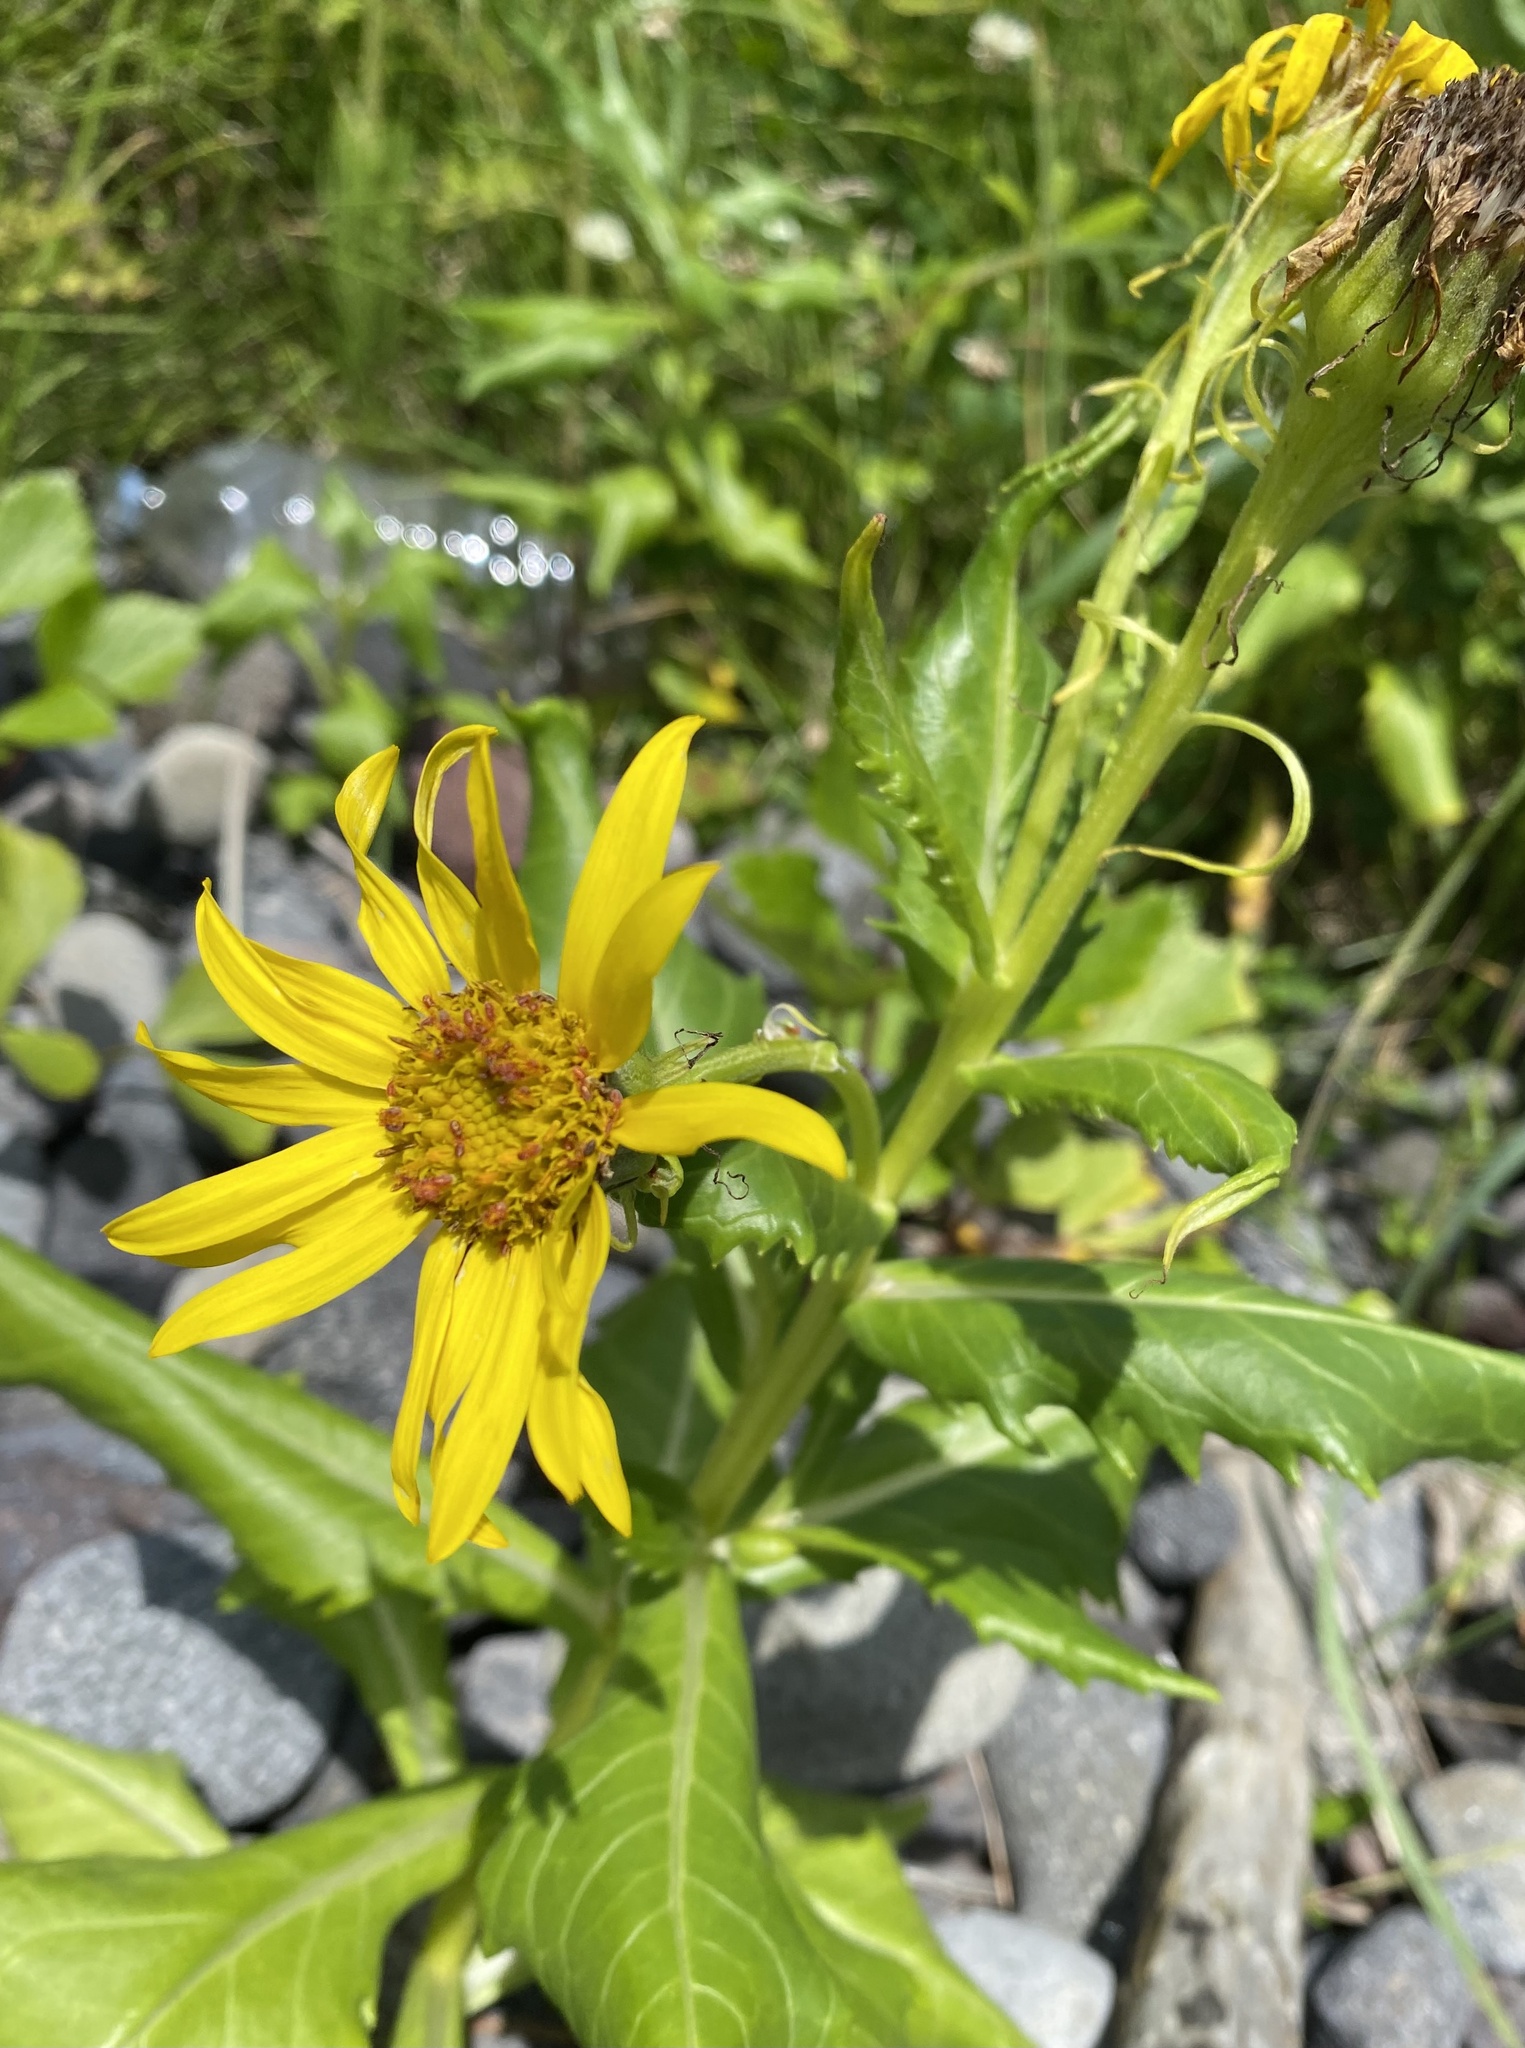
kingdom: Plantae
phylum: Tracheophyta
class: Magnoliopsida
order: Asterales
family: Asteraceae
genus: Jacobaea
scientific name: Jacobaea pseudoarnica
